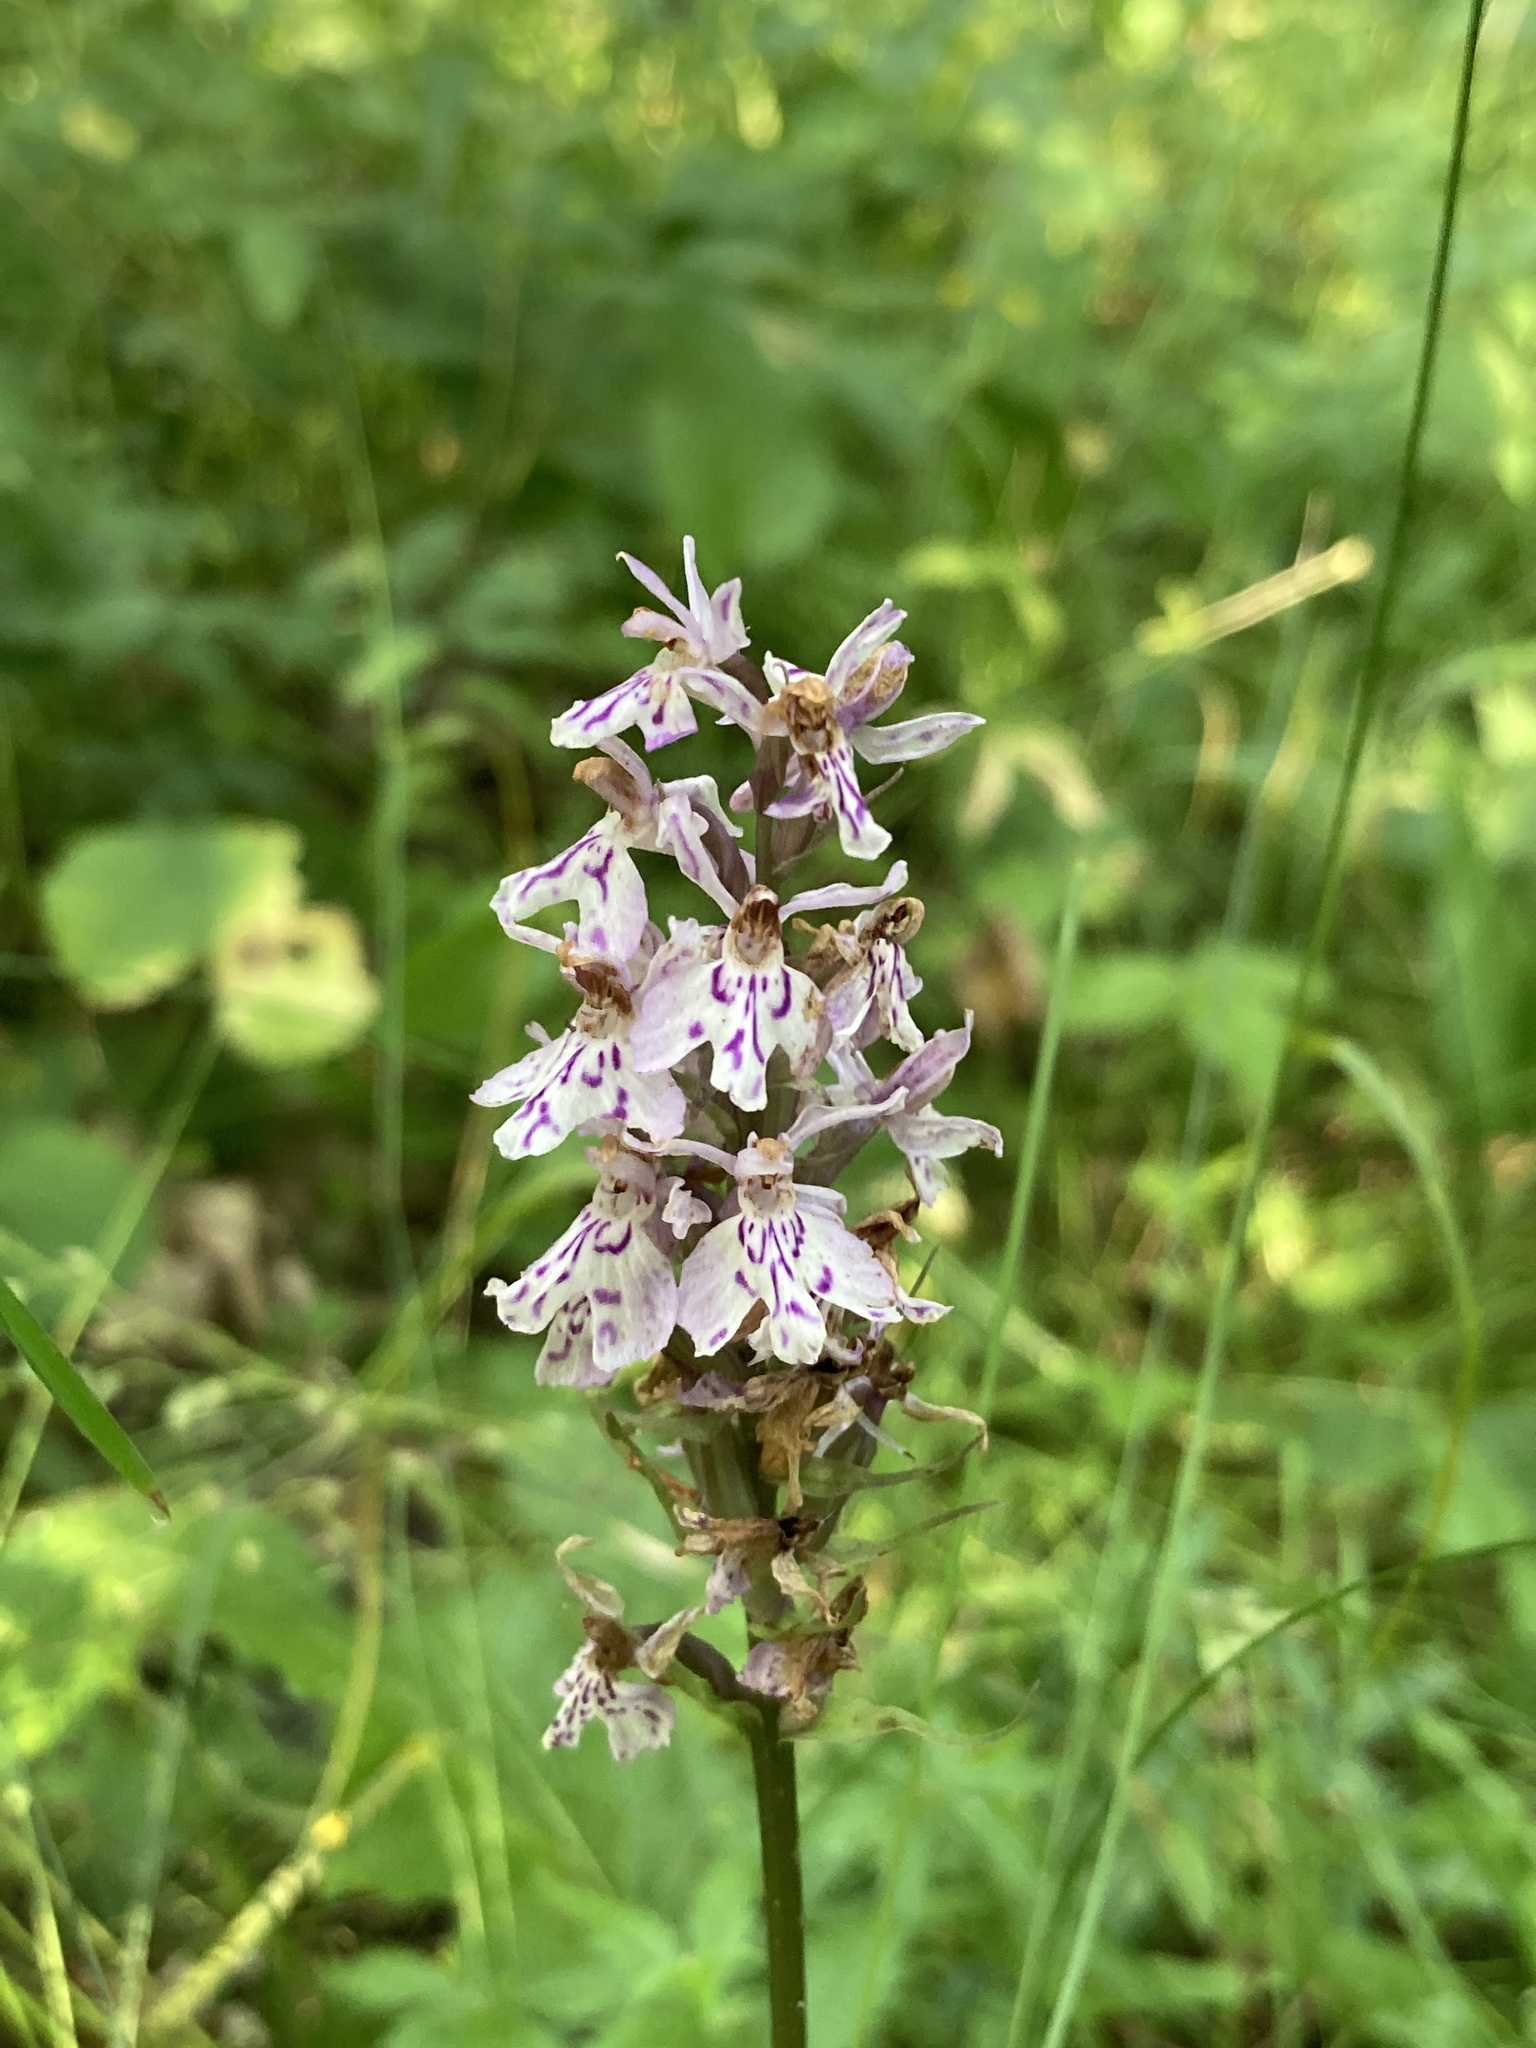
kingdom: Plantae
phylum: Tracheophyta
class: Liliopsida
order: Asparagales
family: Orchidaceae
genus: Dactylorhiza
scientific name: Dactylorhiza maculata
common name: Heath spotted-orchid
